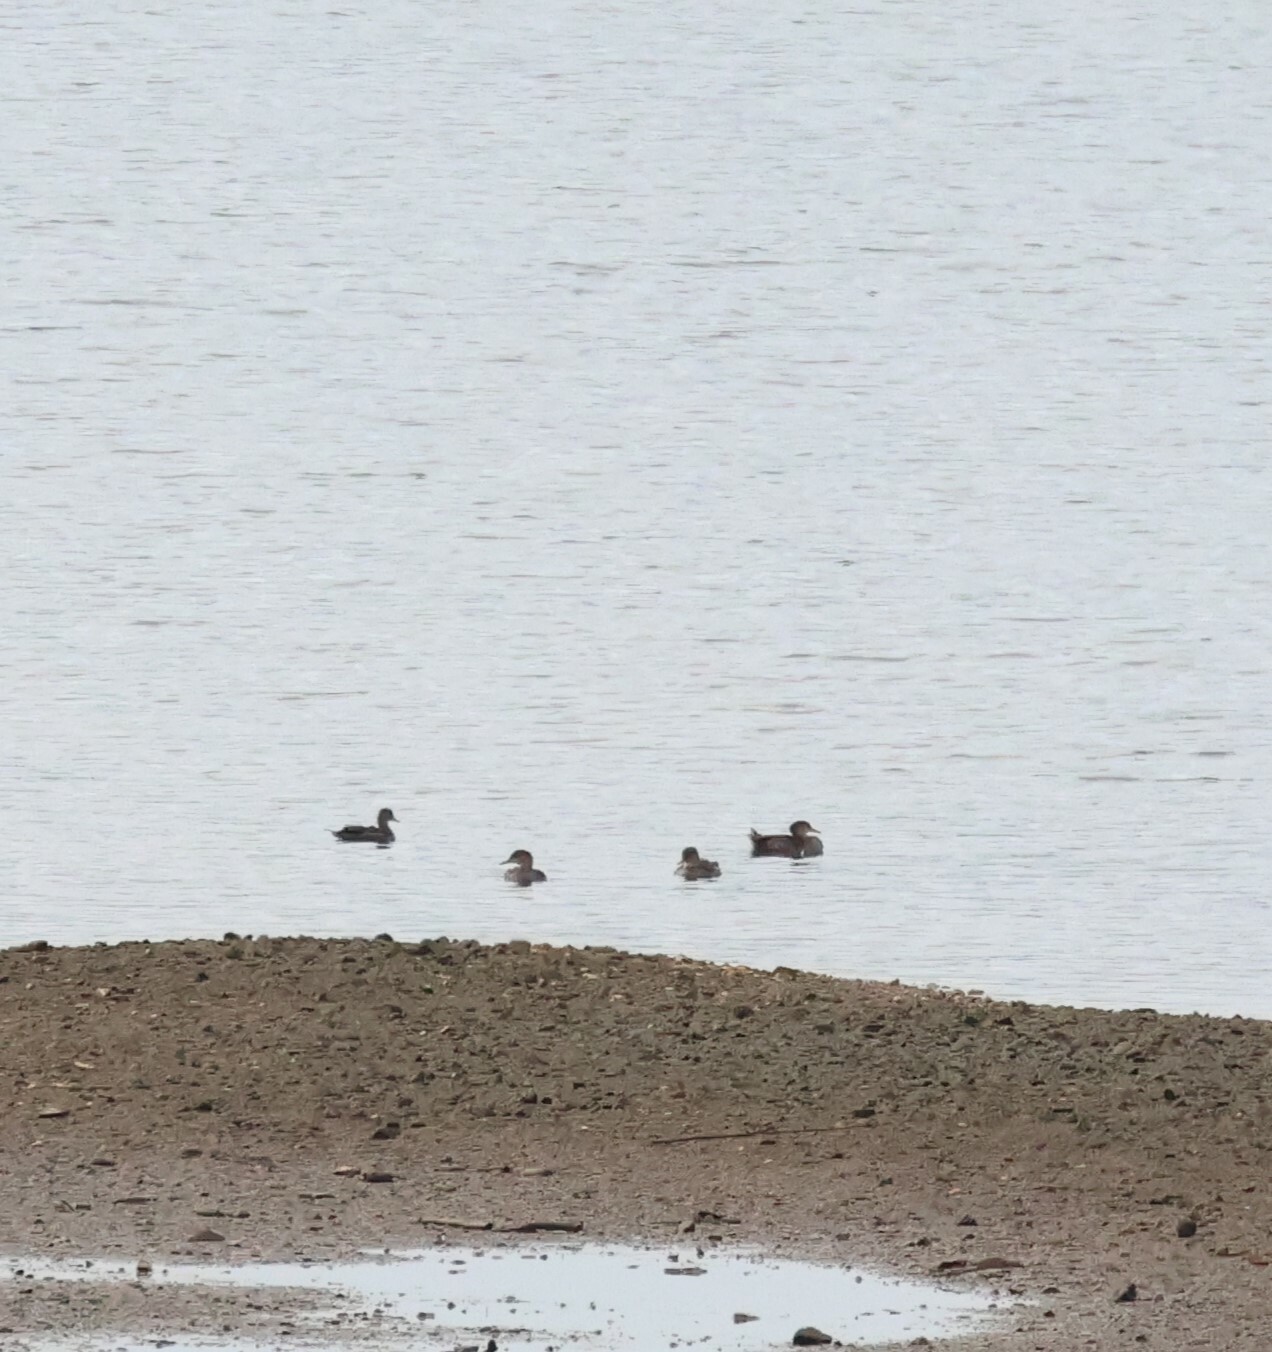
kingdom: Animalia
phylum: Chordata
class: Aves
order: Anseriformes
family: Anatidae
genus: Lophodytes
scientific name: Lophodytes cucullatus
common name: Hooded merganser
